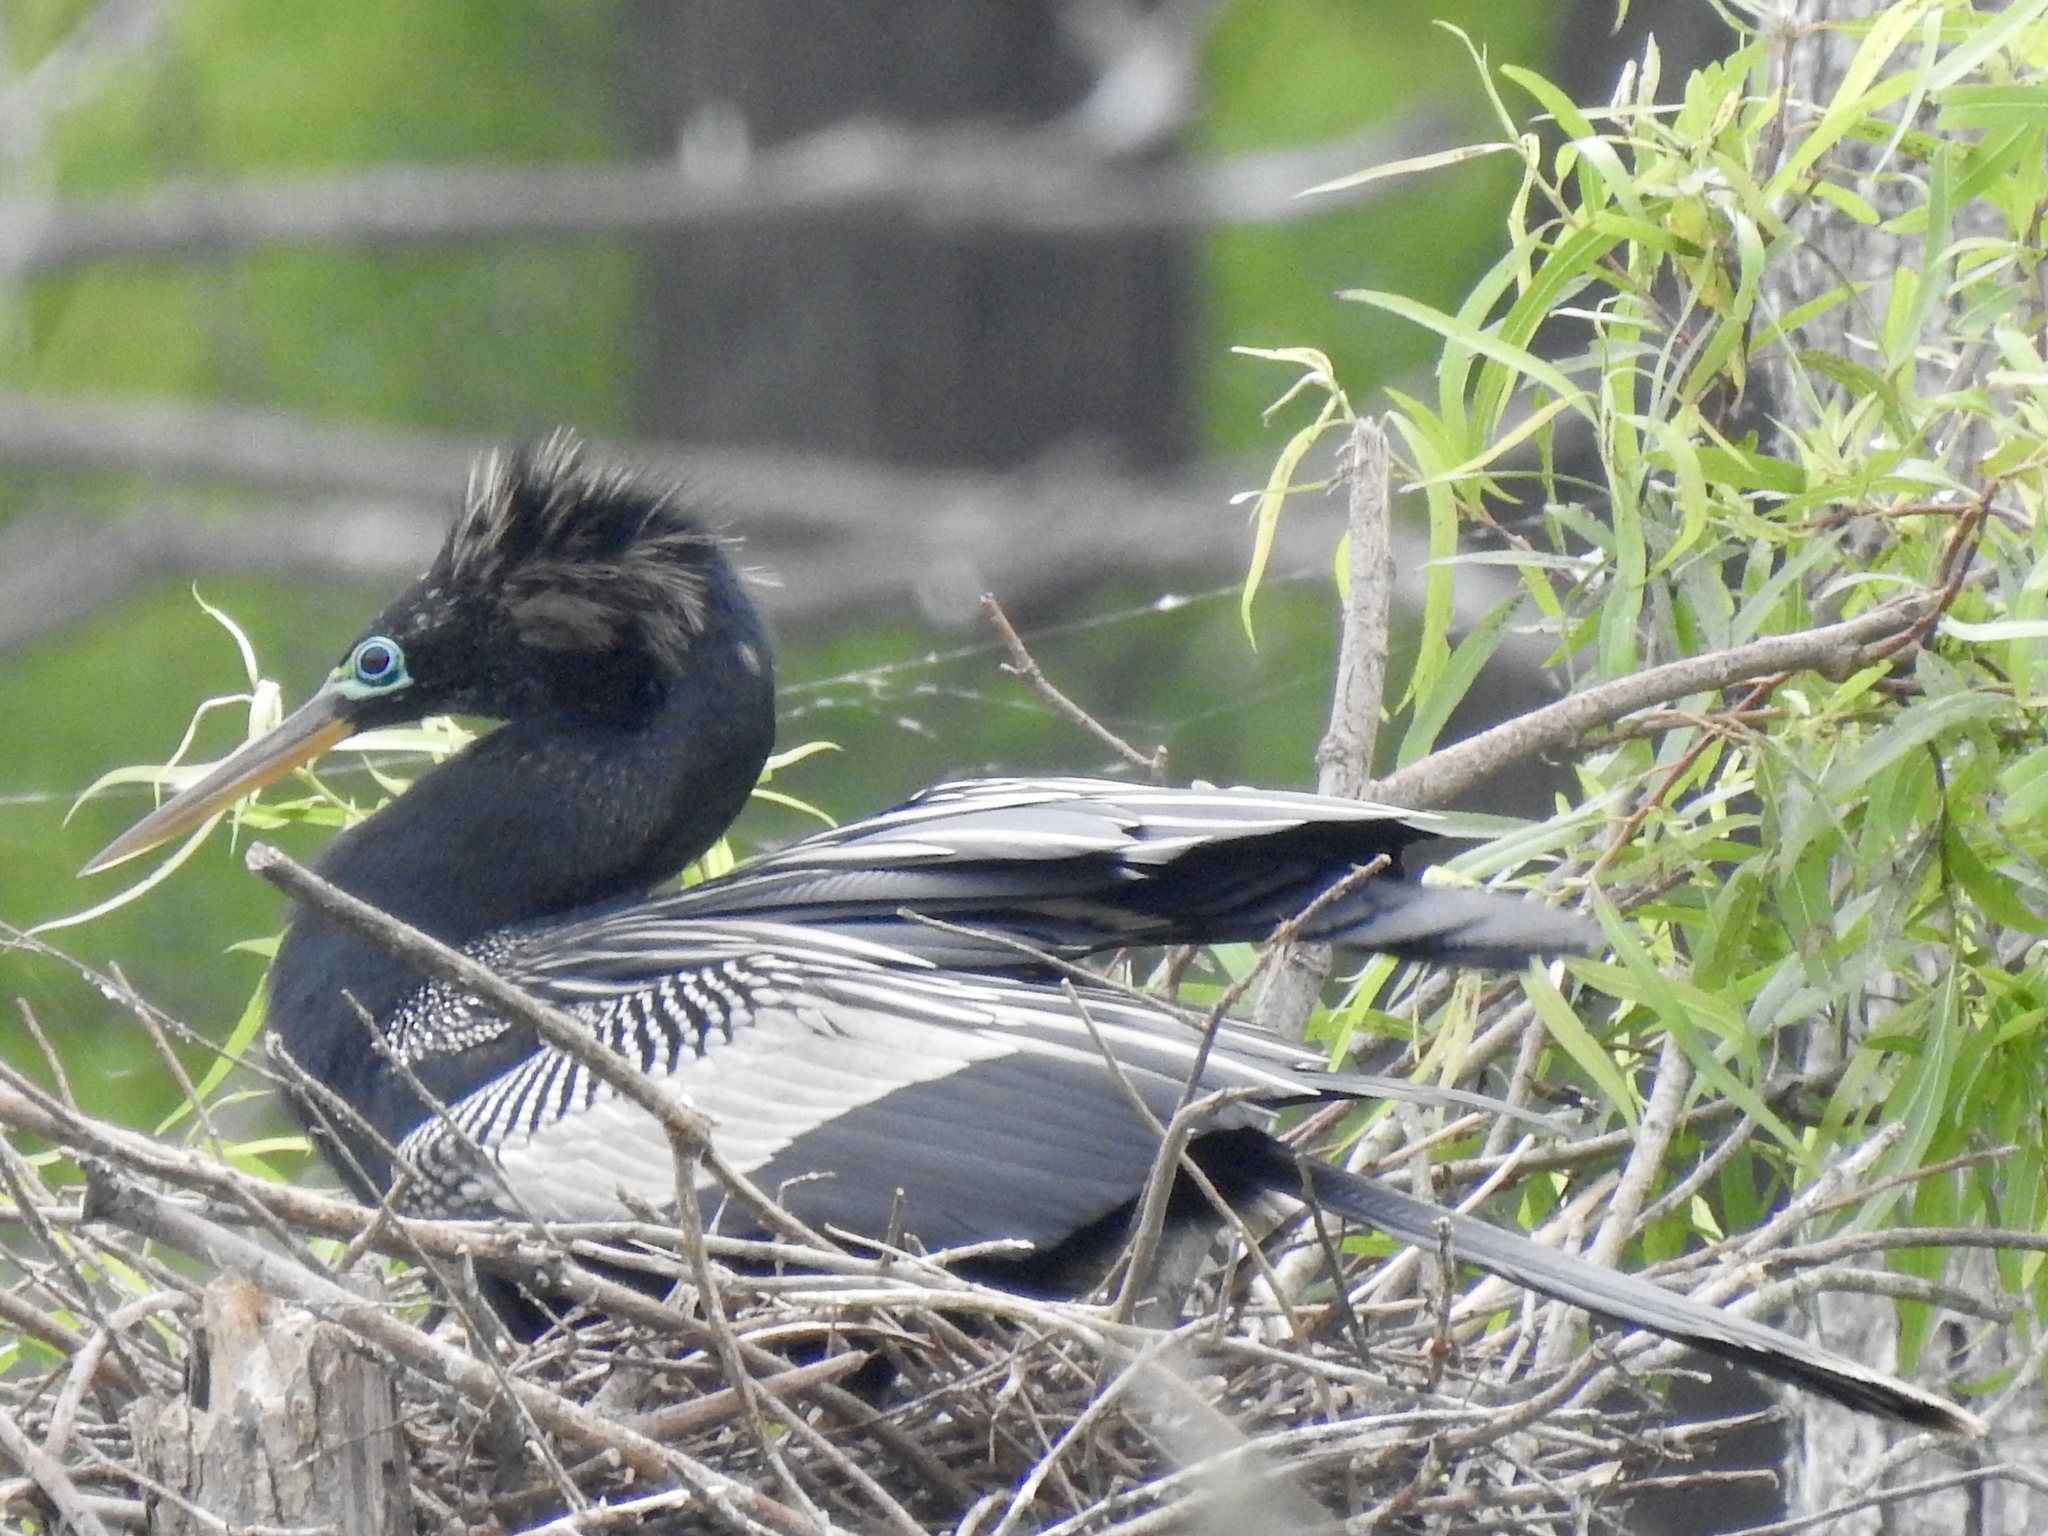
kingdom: Animalia
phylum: Chordata
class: Aves
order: Suliformes
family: Anhingidae
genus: Anhinga
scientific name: Anhinga anhinga
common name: Anhinga
